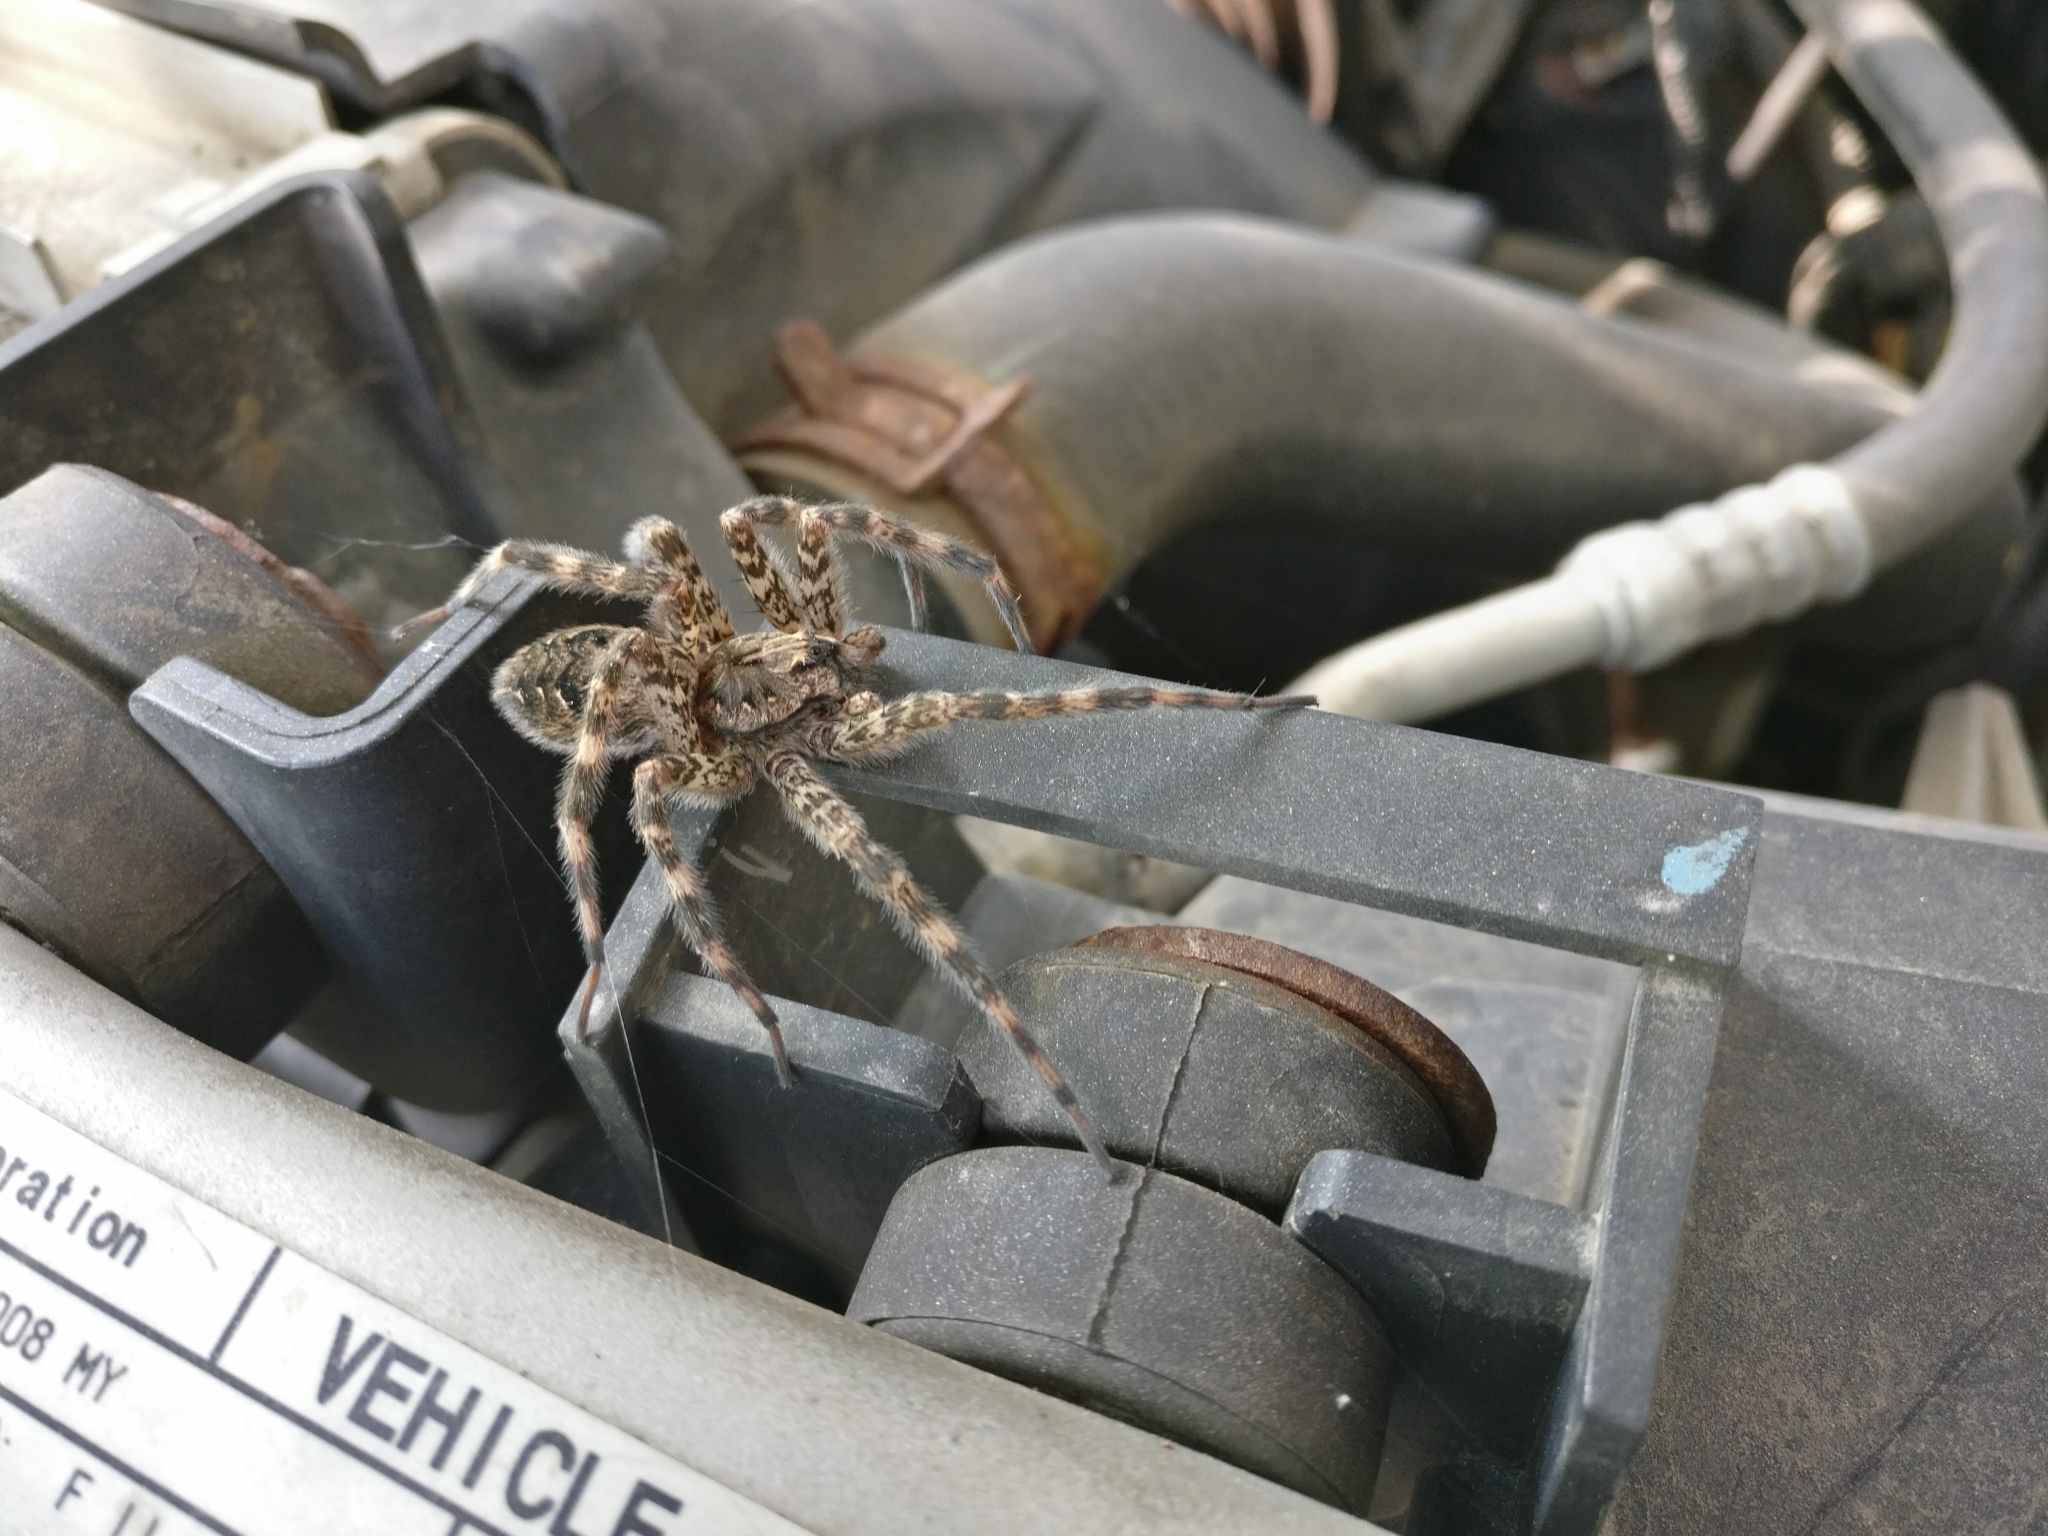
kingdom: Animalia
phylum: Arthropoda
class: Arachnida
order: Araneae
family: Pisauridae
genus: Dolomedes
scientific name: Dolomedes tenebrosus
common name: Dark fishing spider
